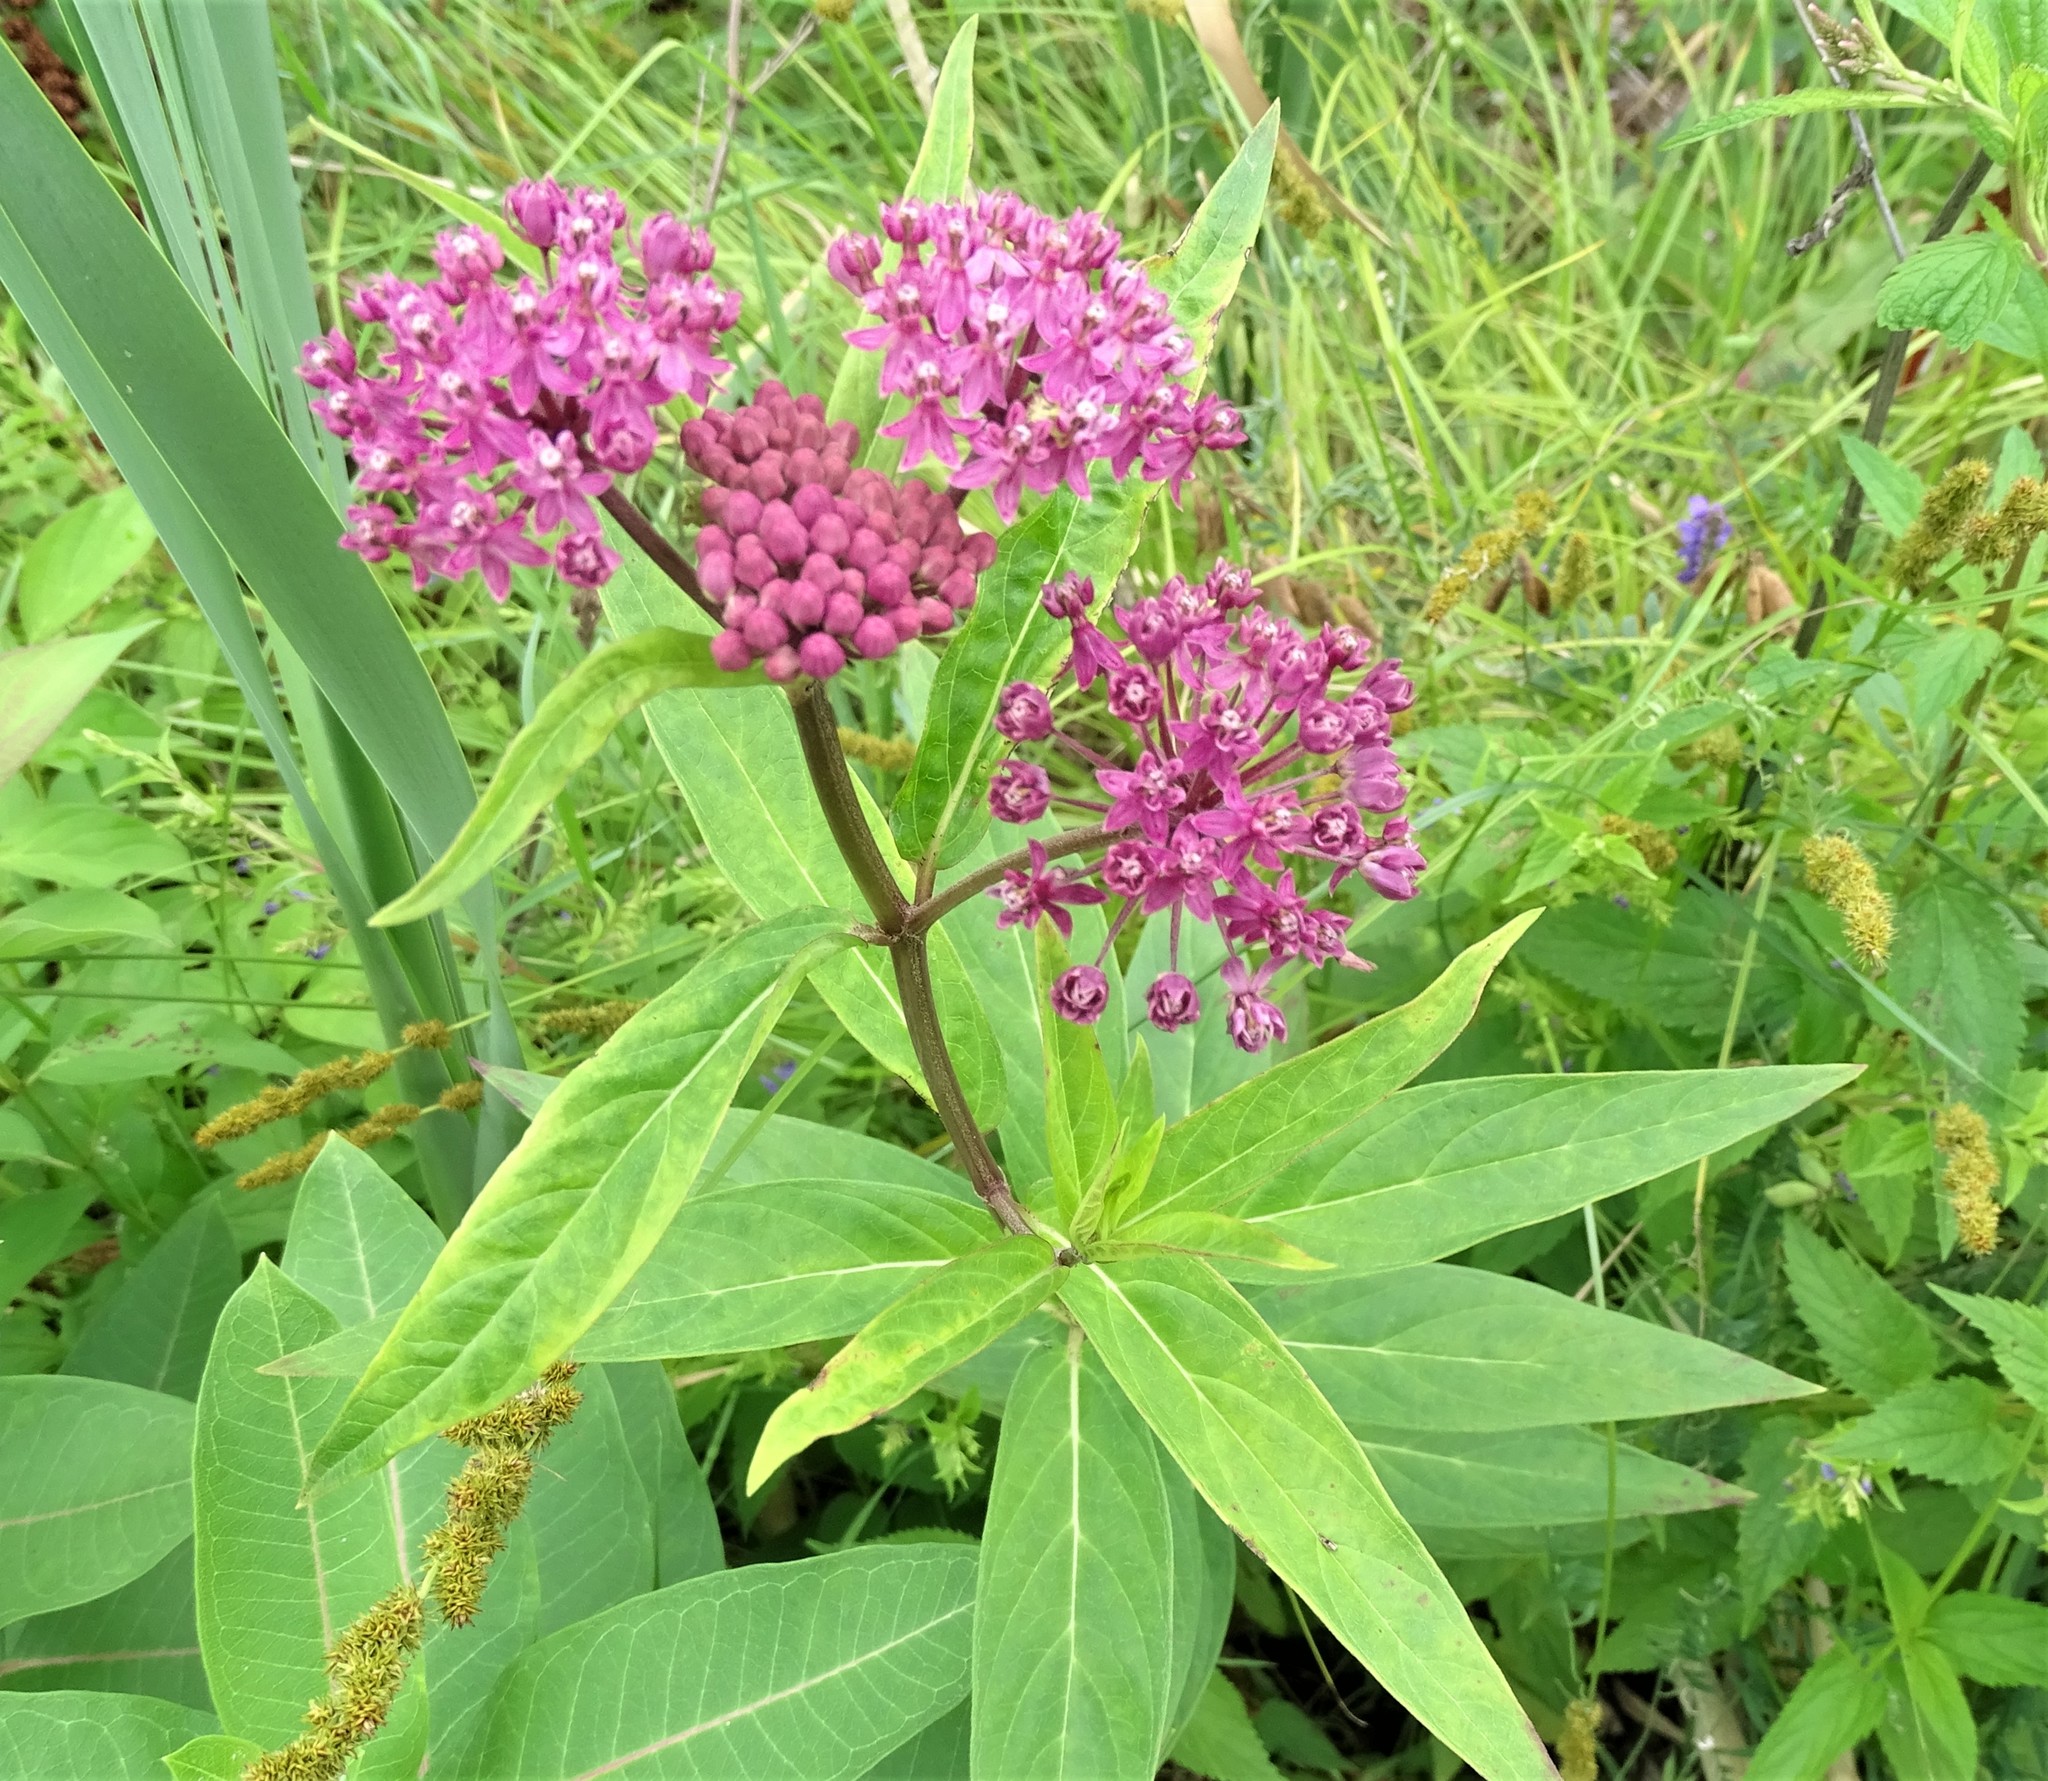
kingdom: Plantae
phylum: Tracheophyta
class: Magnoliopsida
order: Gentianales
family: Apocynaceae
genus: Asclepias
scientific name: Asclepias incarnata
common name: Swamp milkweed
